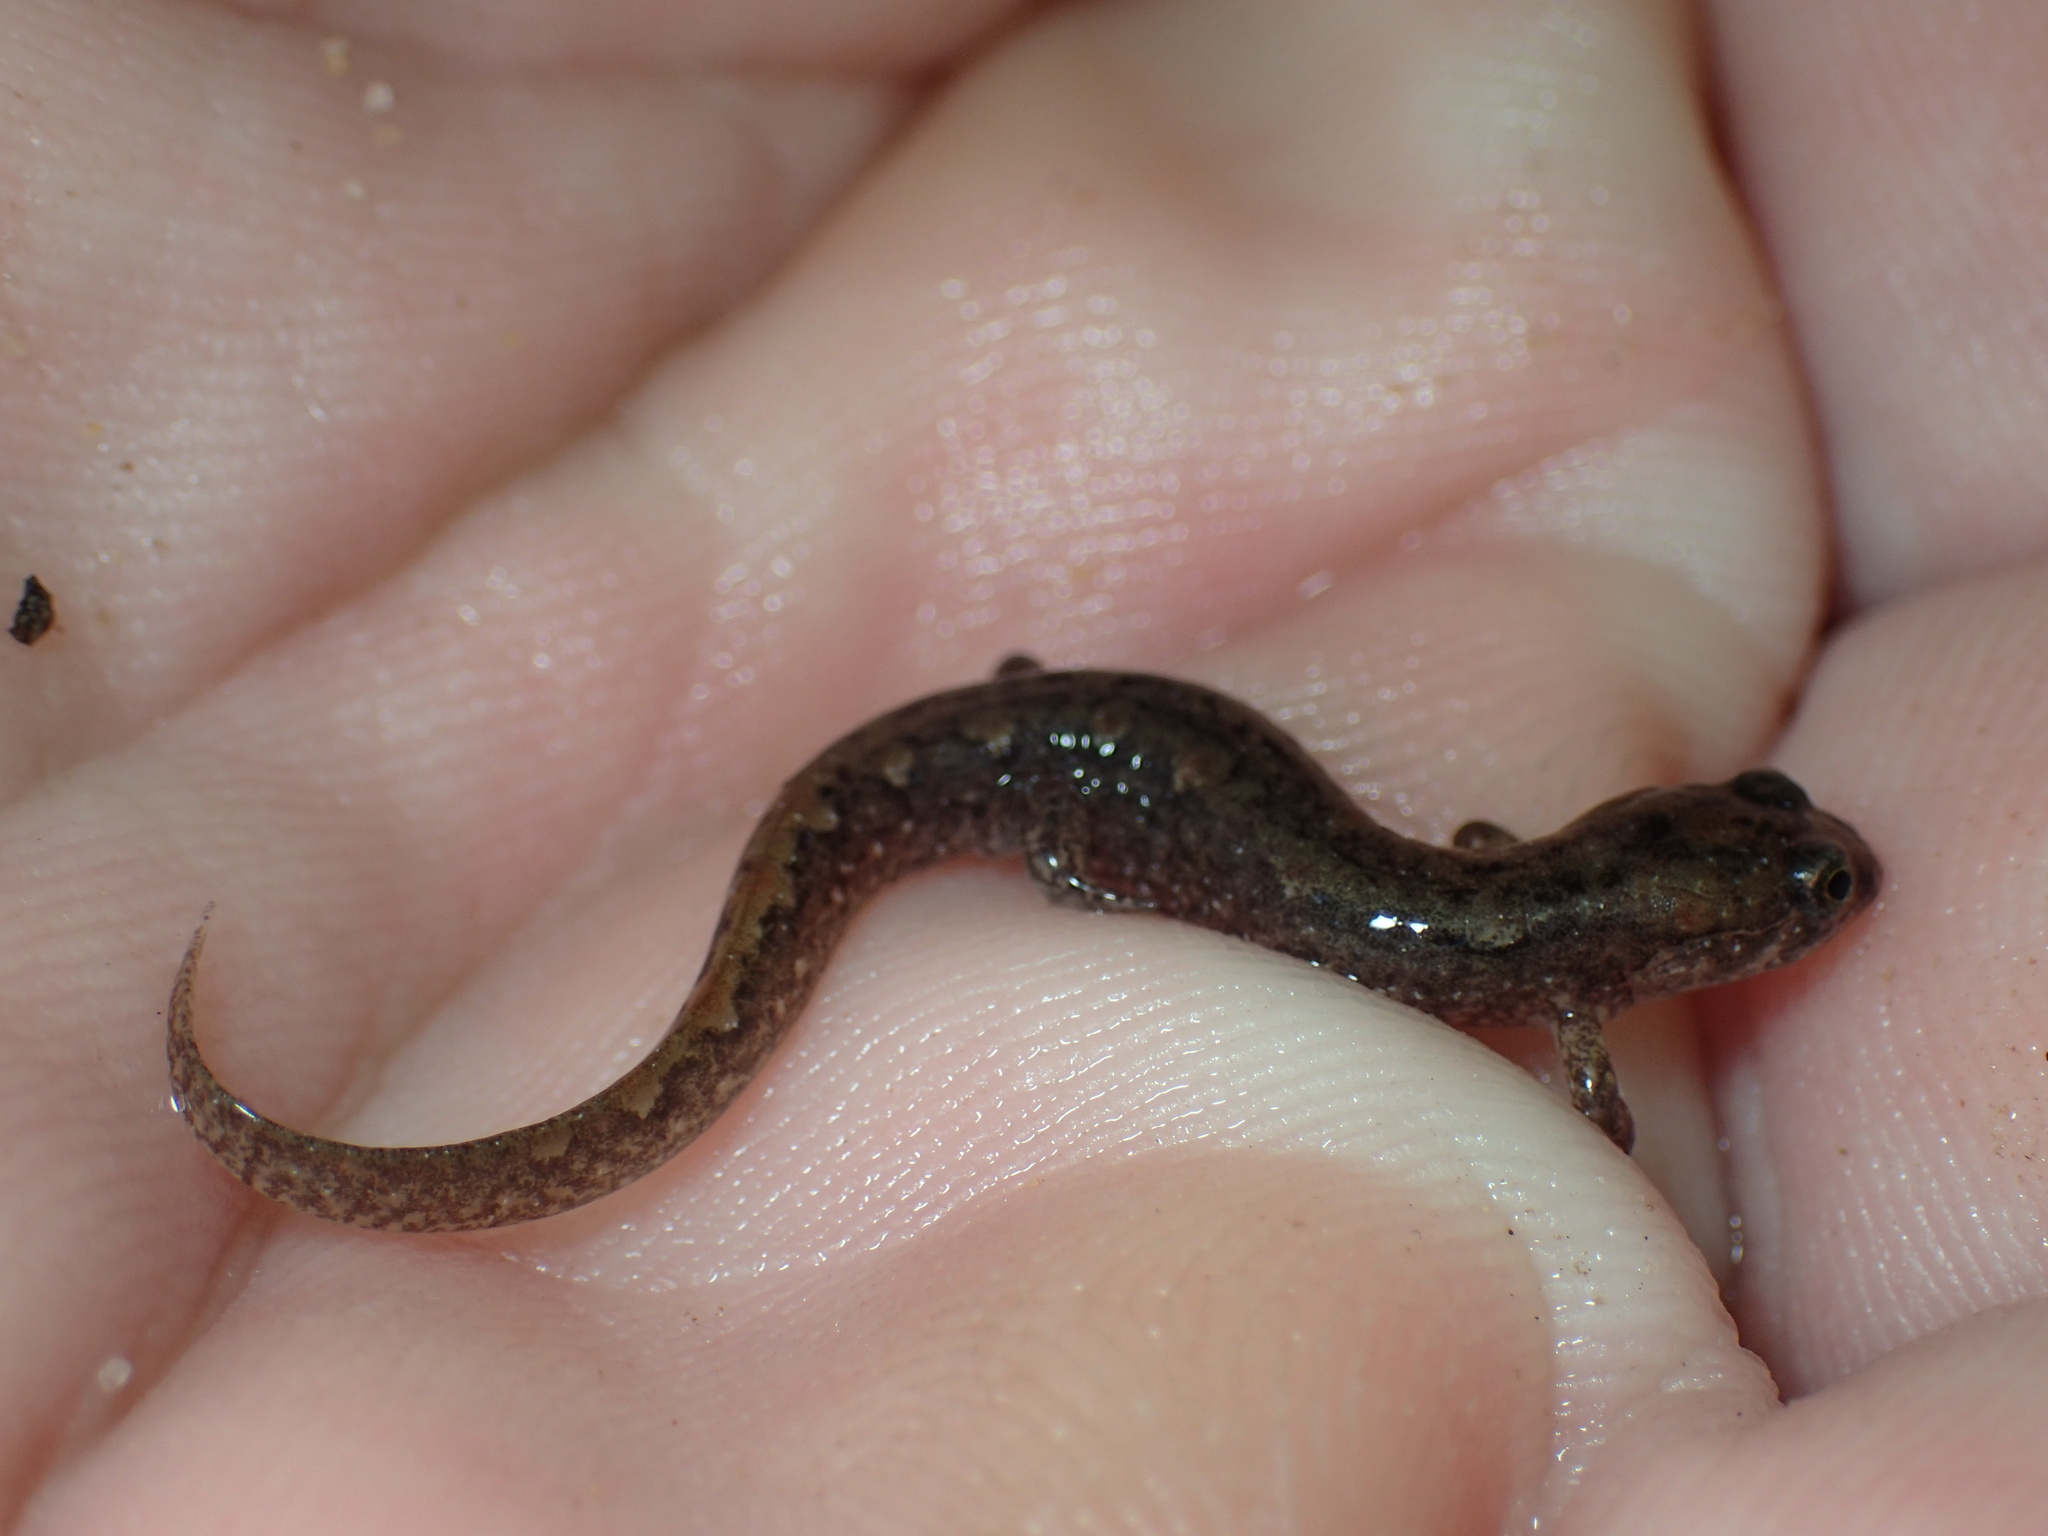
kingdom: Animalia
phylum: Chordata
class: Amphibia
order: Caudata
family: Plethodontidae
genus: Desmognathus
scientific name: Desmognathus conanti
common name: Spotted dusky salamander
